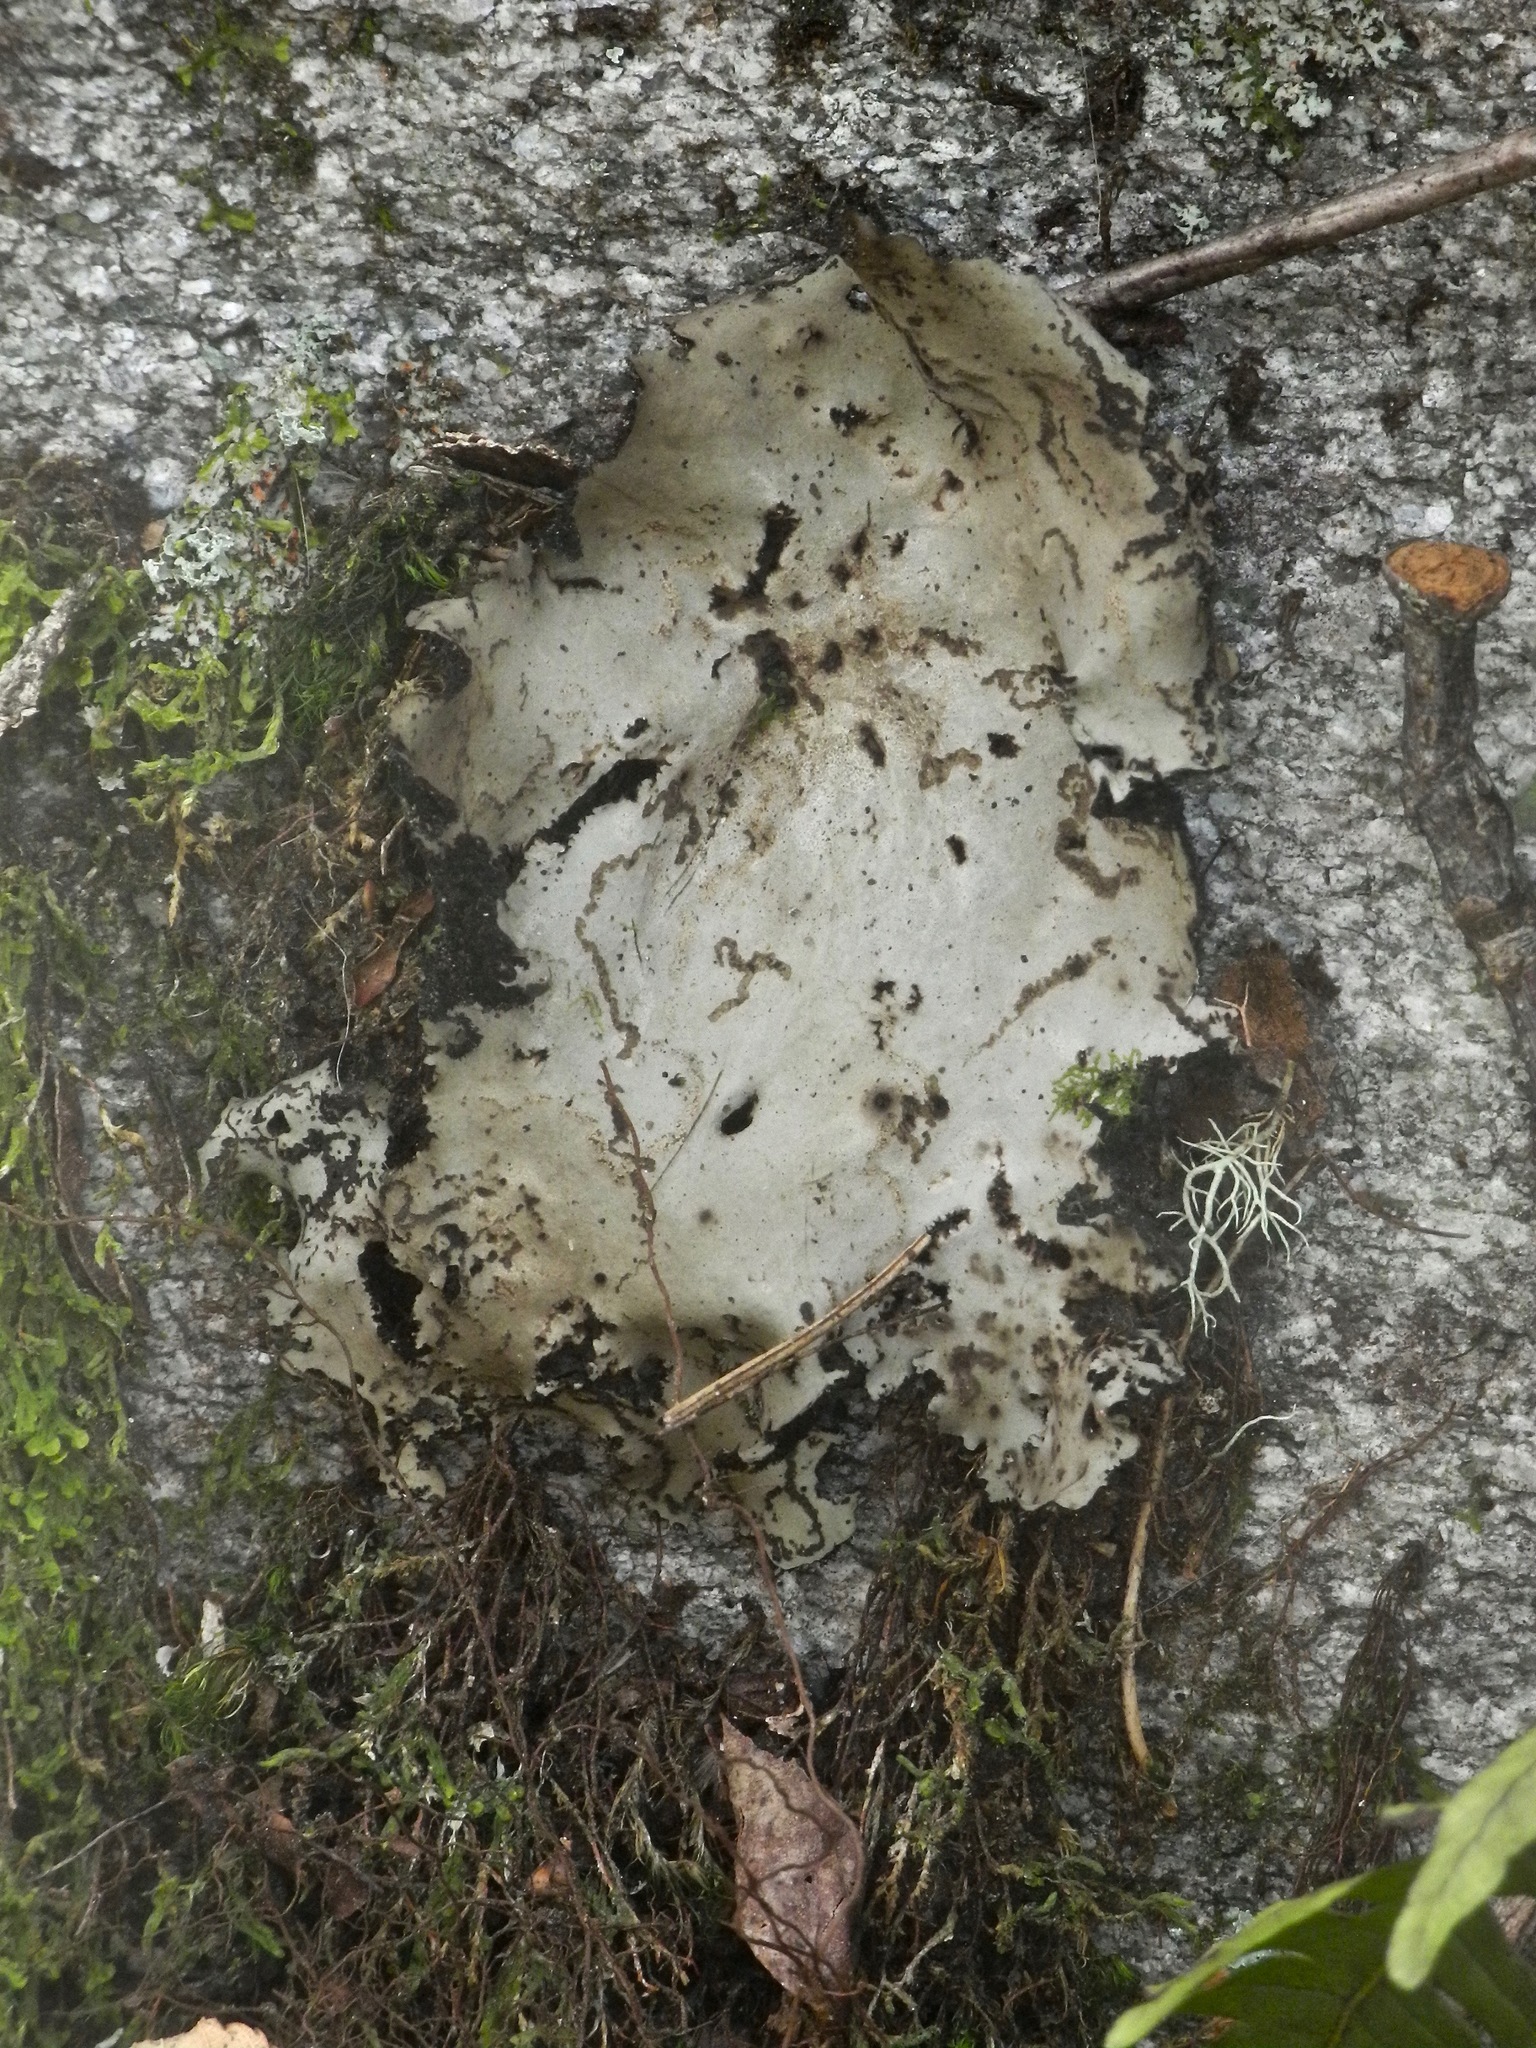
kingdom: Fungi
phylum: Ascomycota
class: Lecanoromycetes
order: Umbilicariales
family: Umbilicariaceae
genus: Umbilicaria
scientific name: Umbilicaria mammulata
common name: Smooth rock tripe
